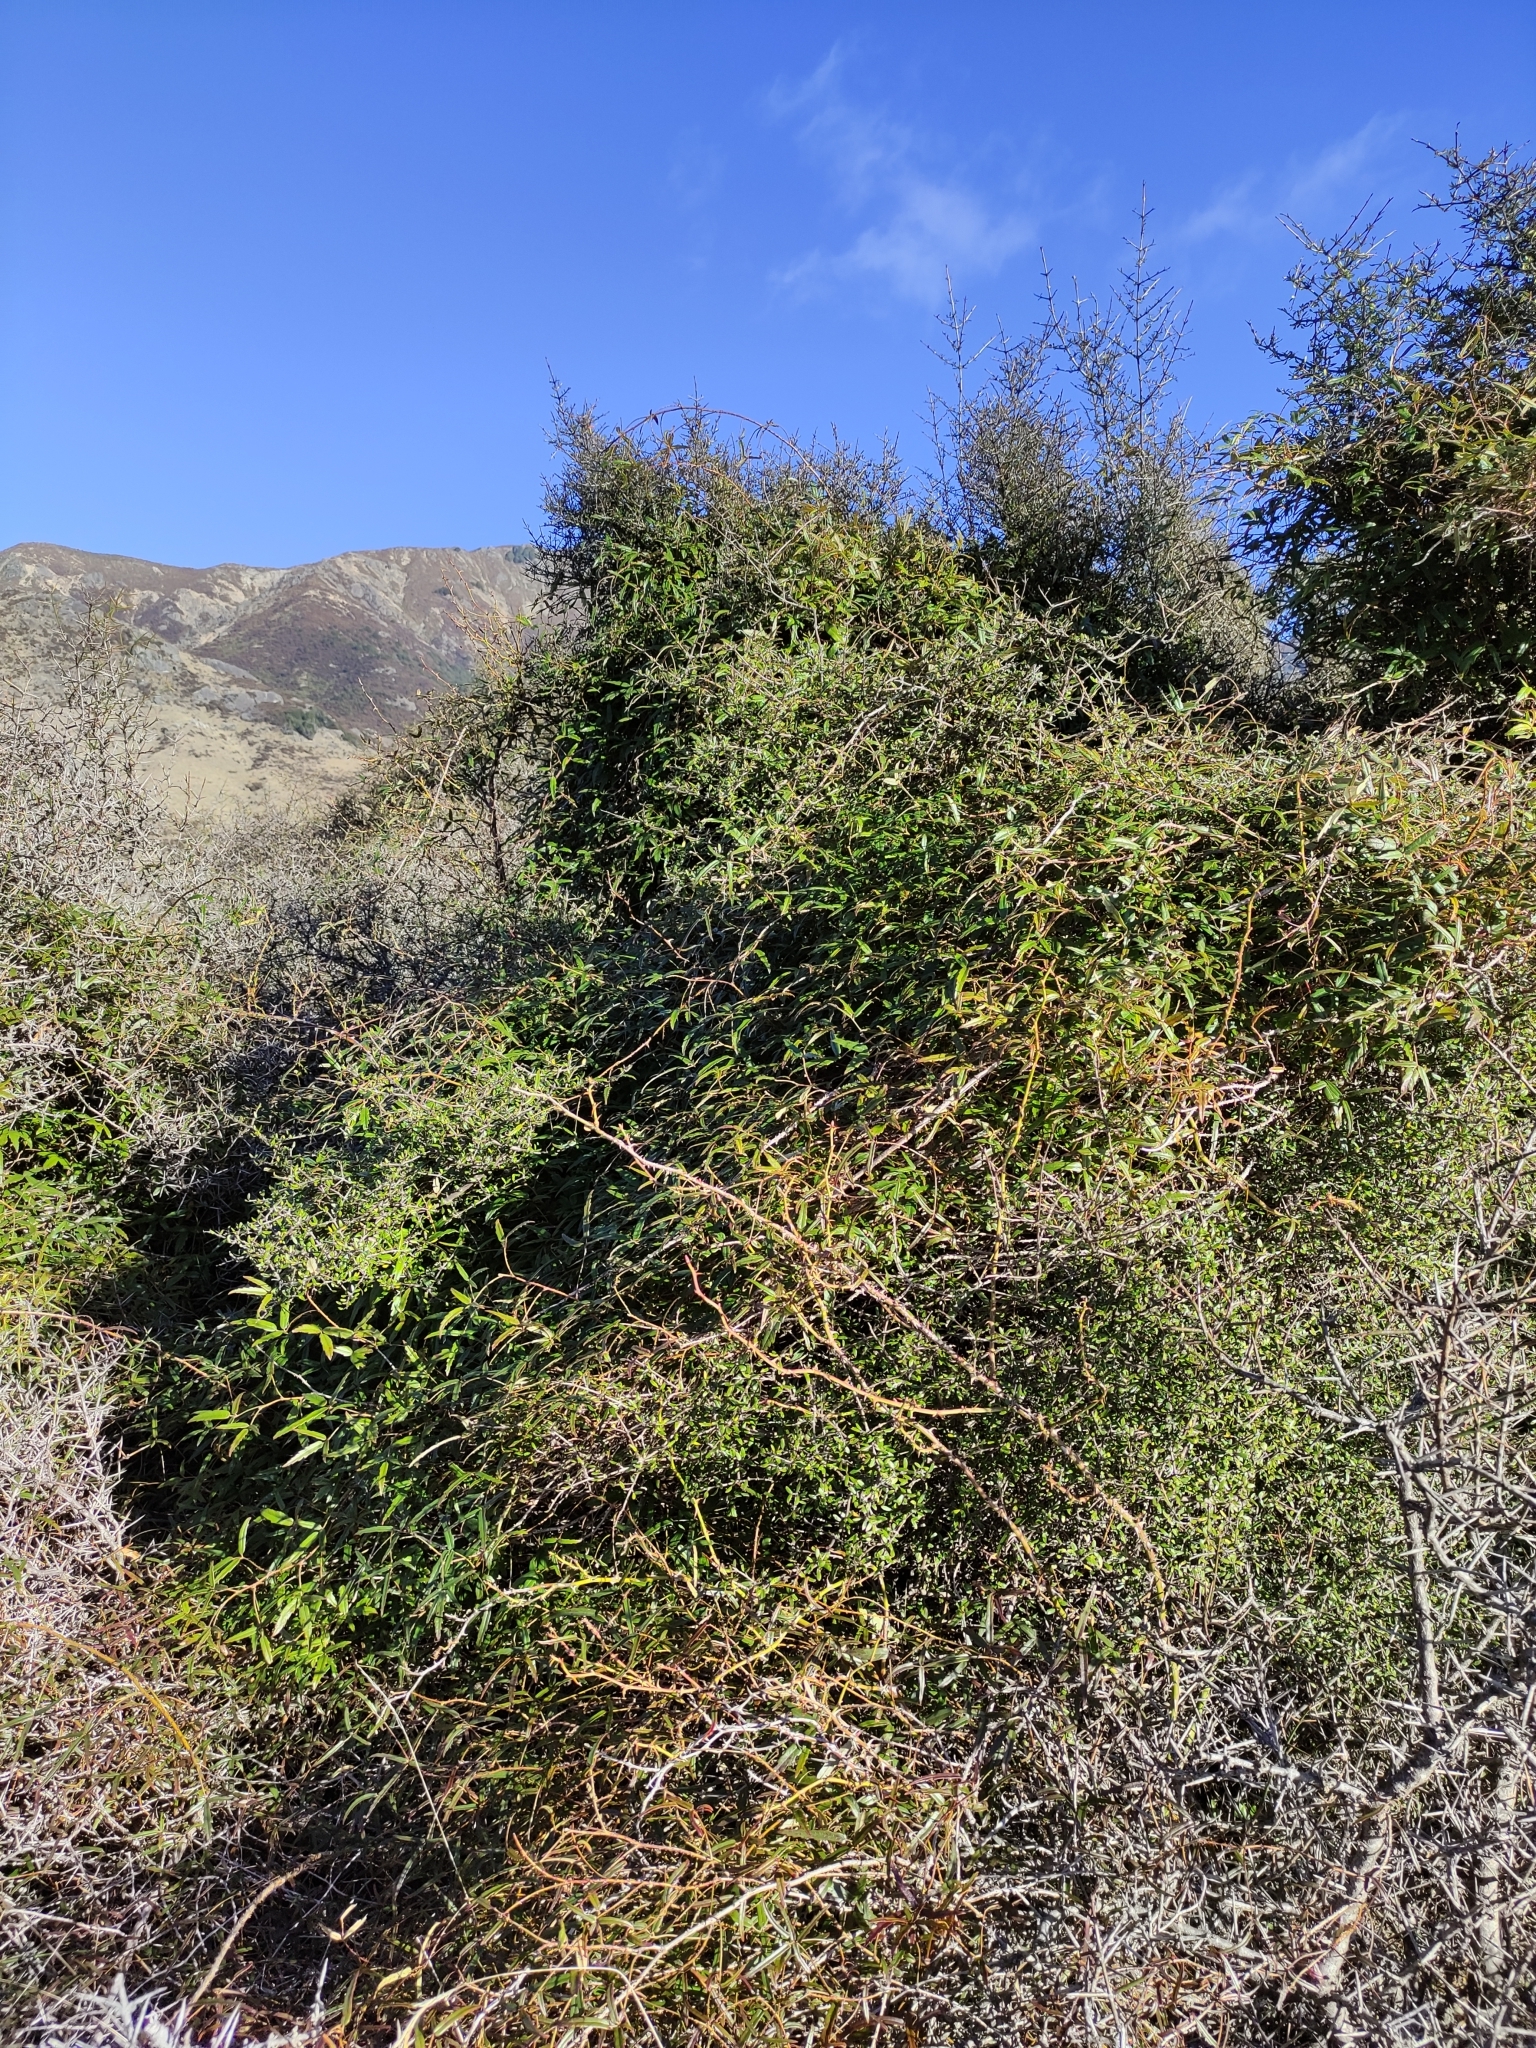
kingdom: Plantae
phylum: Tracheophyta
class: Magnoliopsida
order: Rosales
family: Rosaceae
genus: Rubus
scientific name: Rubus schmidelioides
